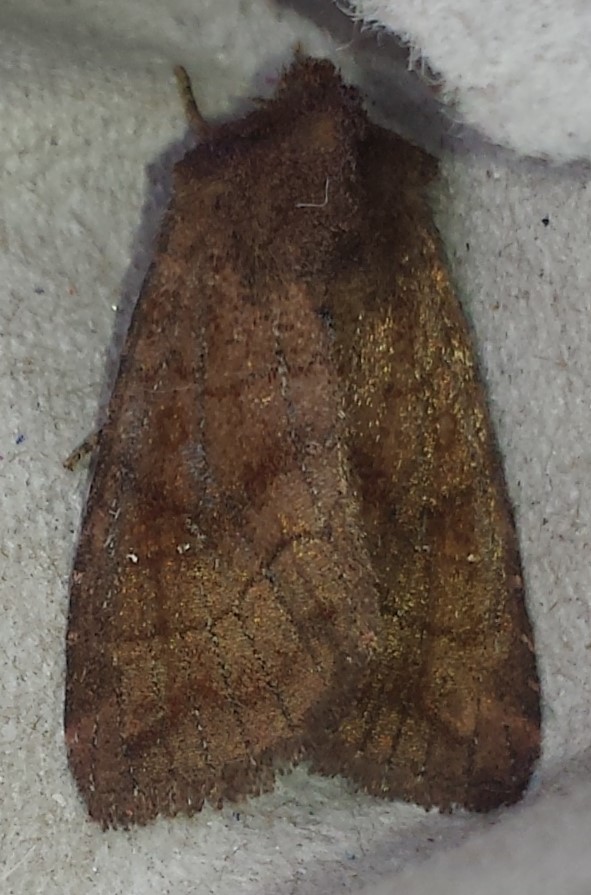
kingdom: Animalia
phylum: Arthropoda
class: Insecta
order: Lepidoptera
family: Noctuidae
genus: Tricholita
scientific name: Tricholita signata
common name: Signate quaker
